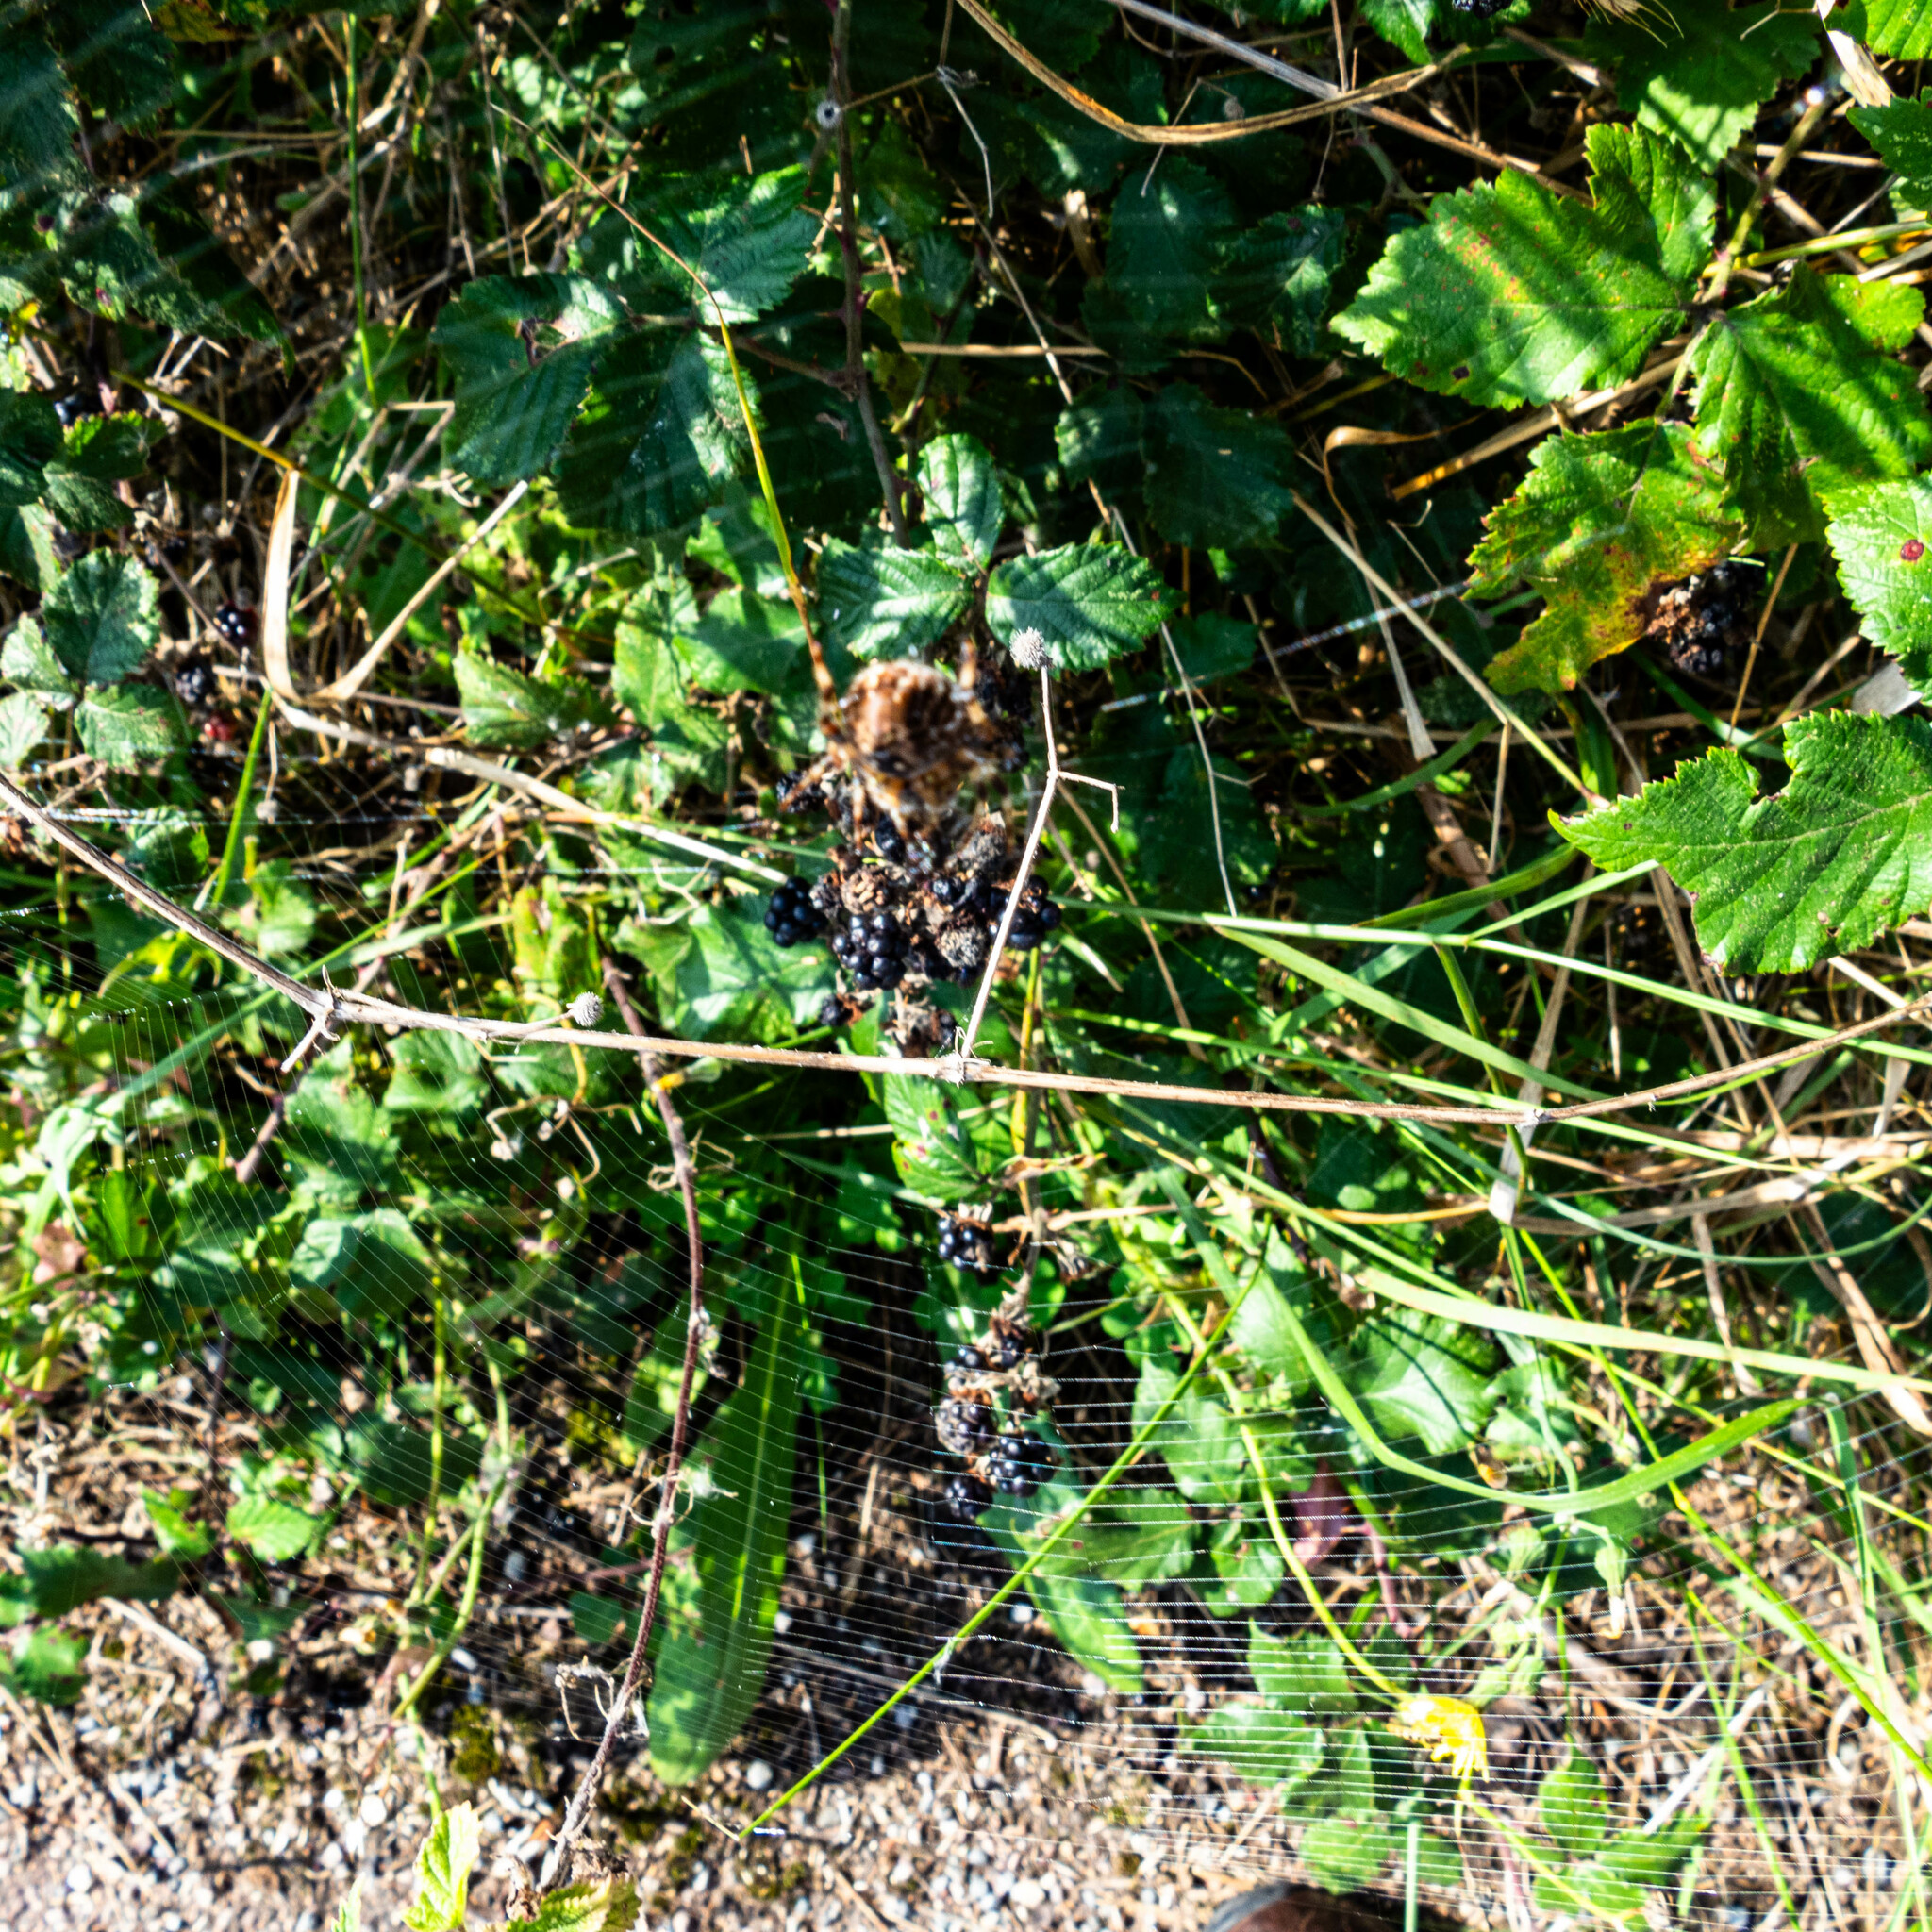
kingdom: Animalia
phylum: Arthropoda
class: Arachnida
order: Araneae
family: Araneidae
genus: Araneus
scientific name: Araneus diadematus
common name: Cross orbweaver
